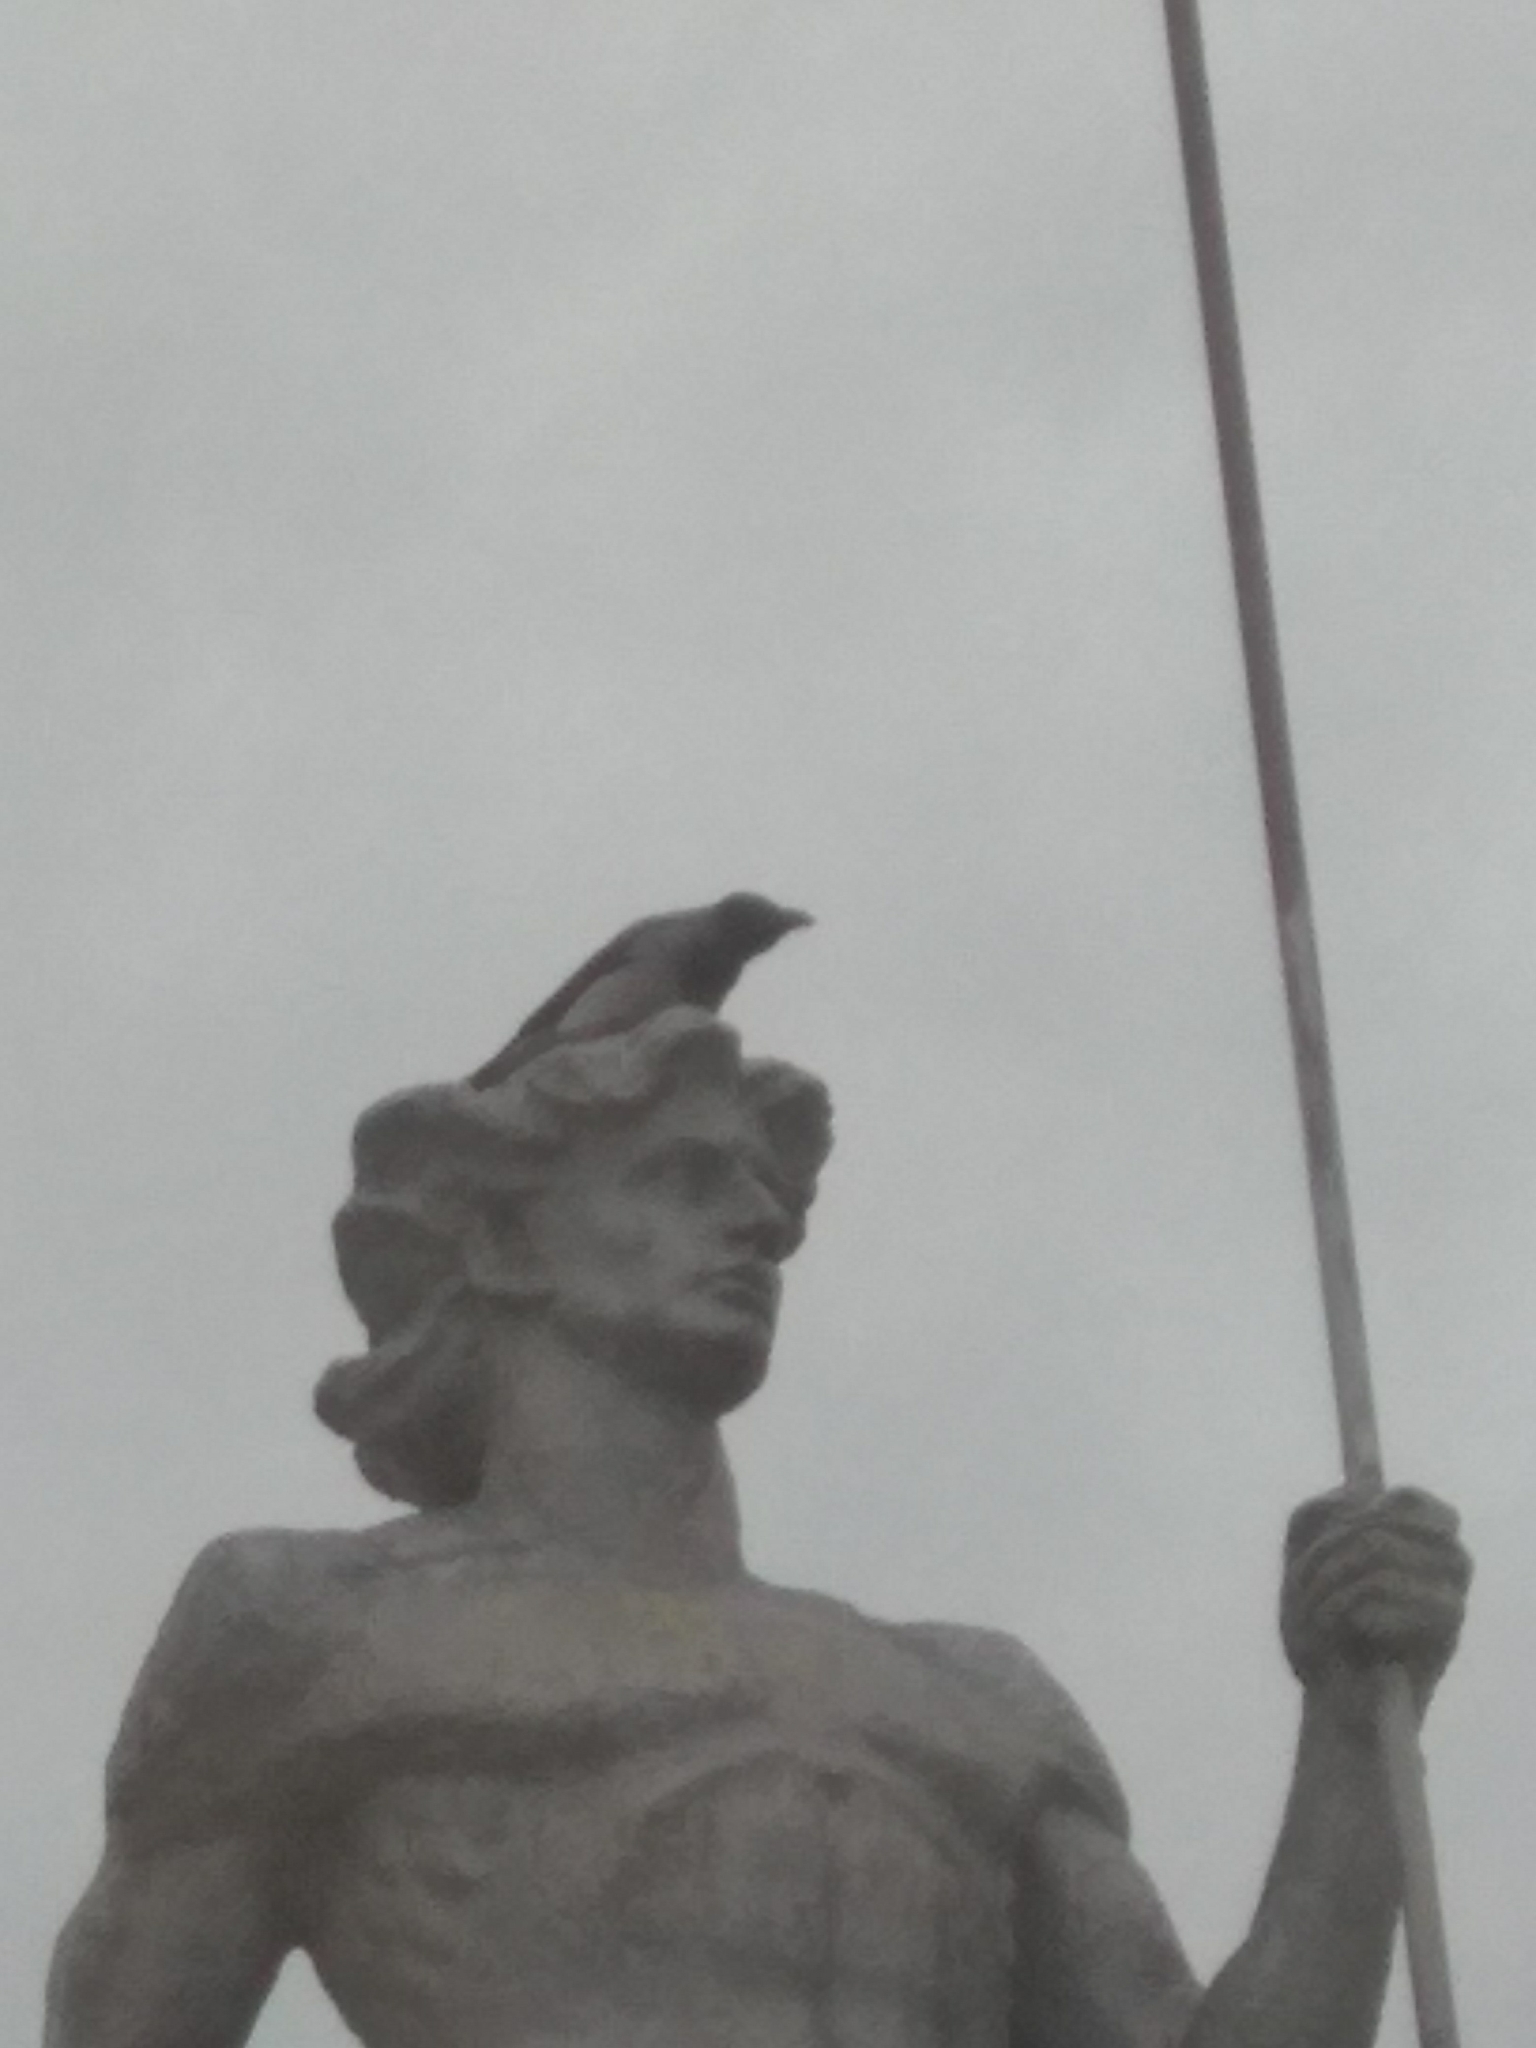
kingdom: Animalia
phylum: Chordata
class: Aves
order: Passeriformes
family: Corvidae
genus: Corvus
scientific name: Corvus cornix
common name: Hooded crow
